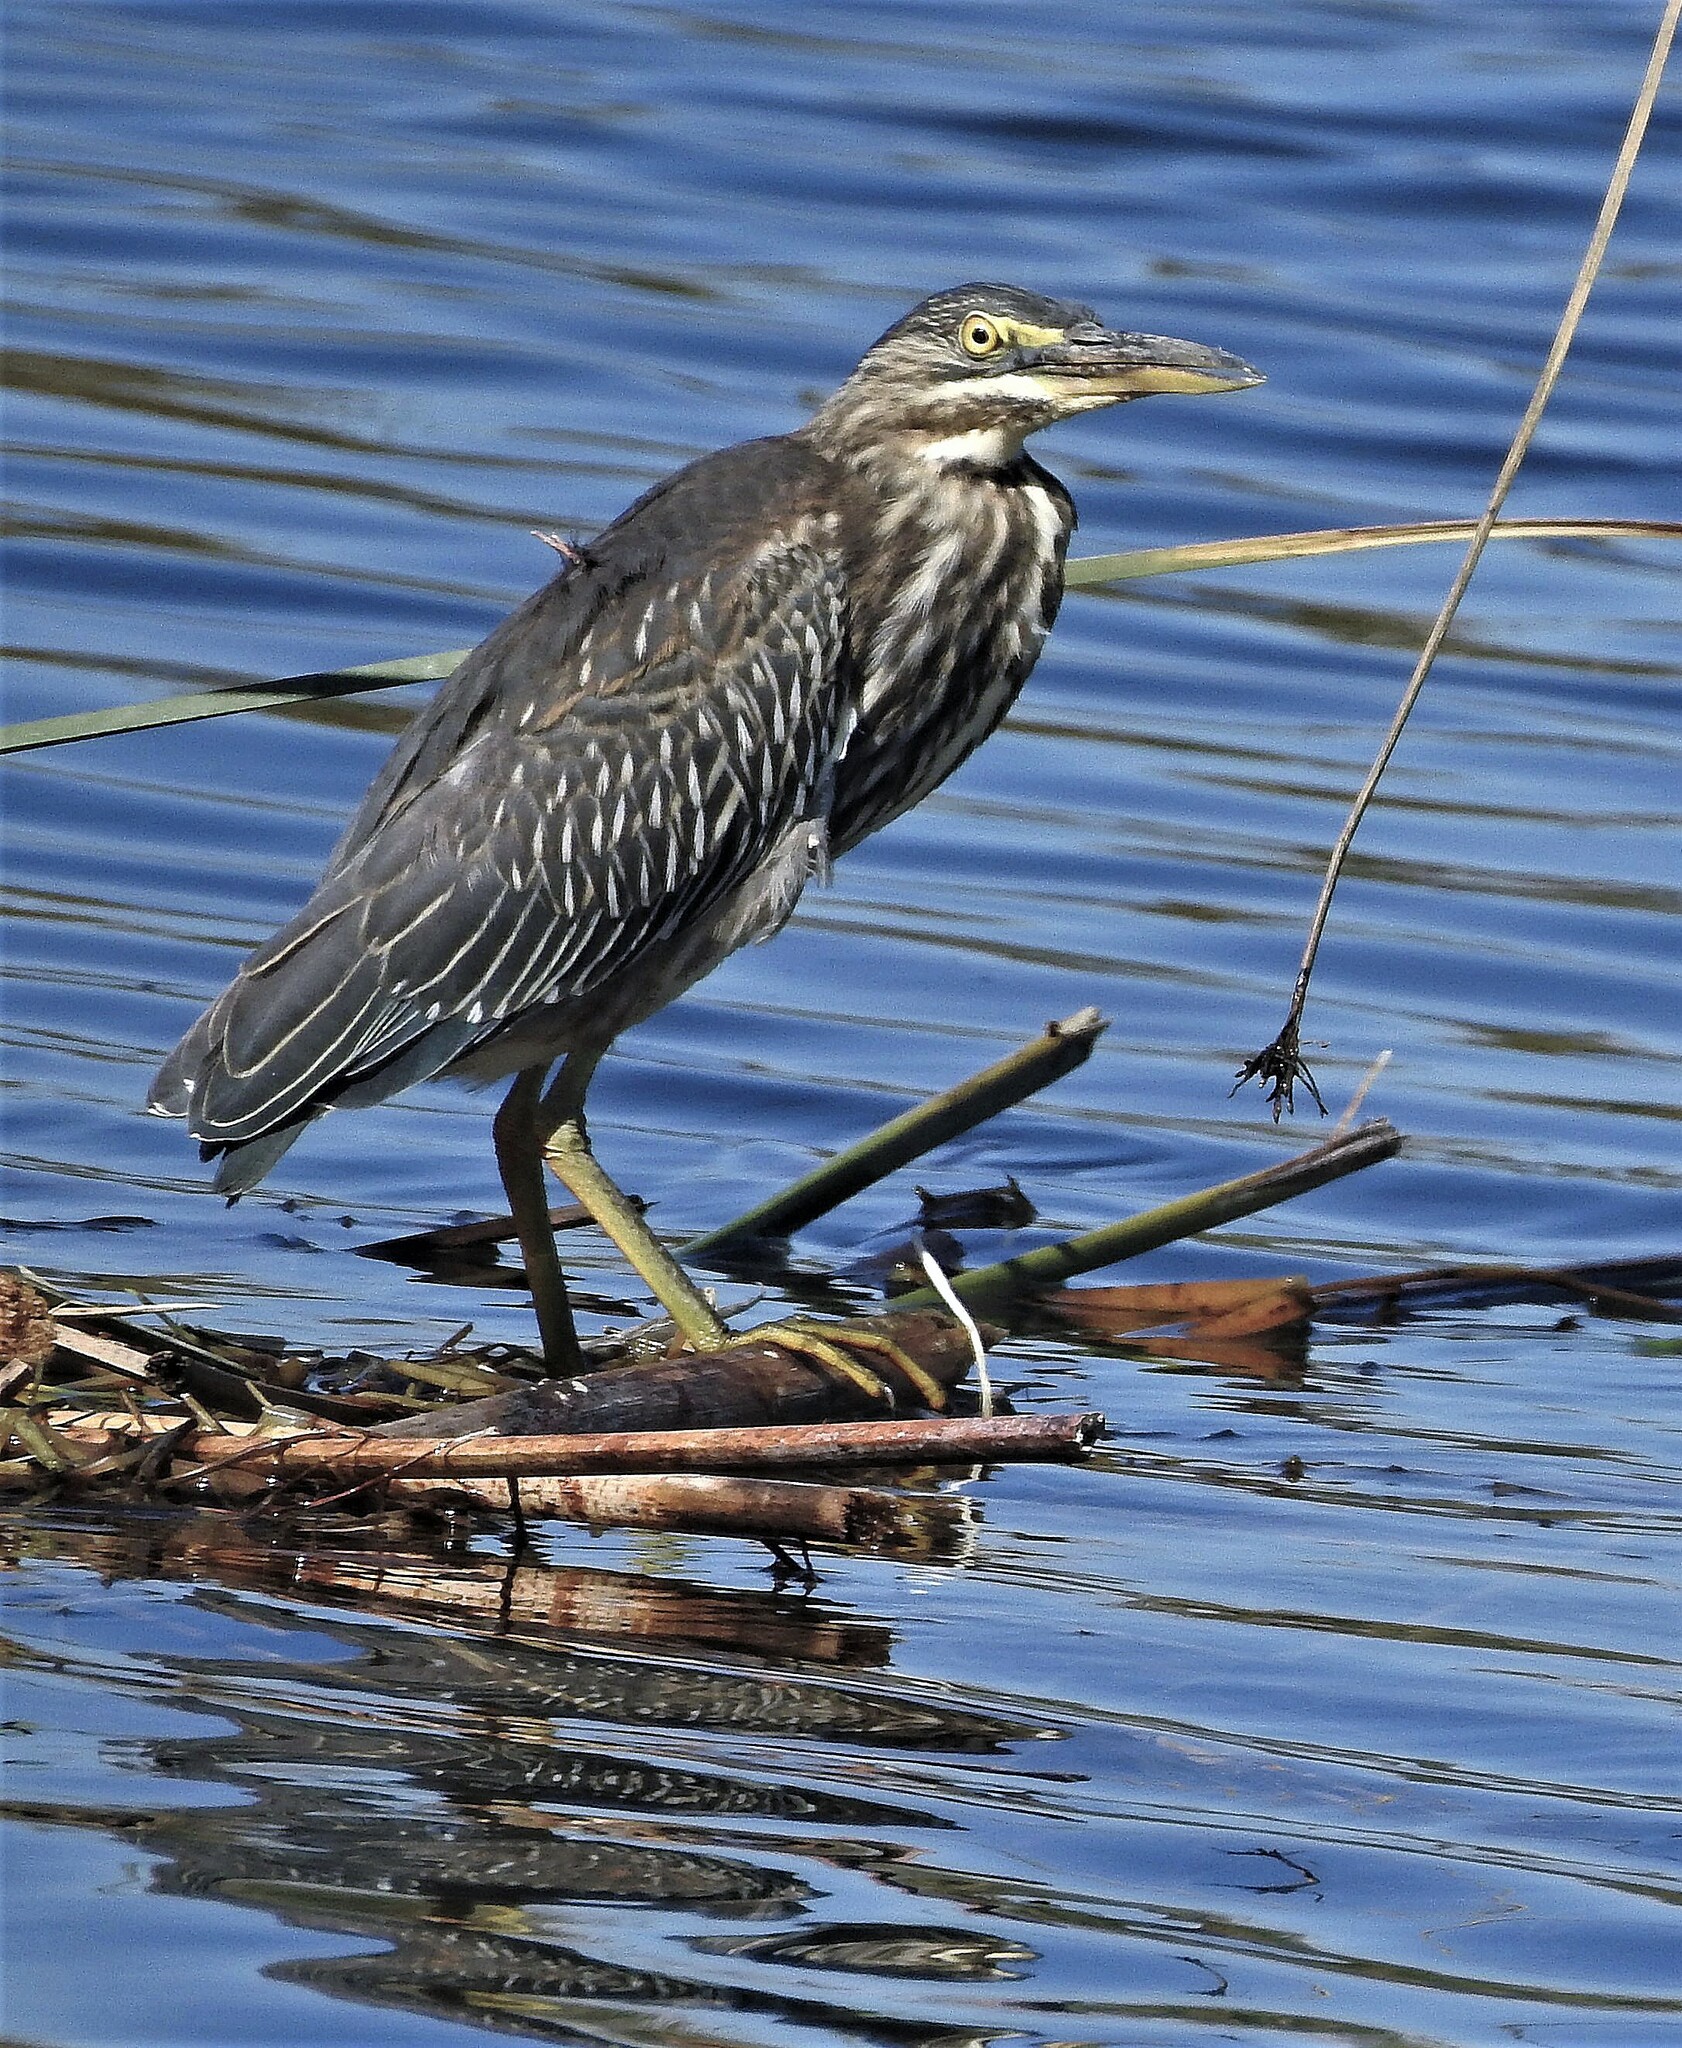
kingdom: Animalia
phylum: Chordata
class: Aves
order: Pelecaniformes
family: Ardeidae
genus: Butorides
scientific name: Butorides striata
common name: Striated heron
